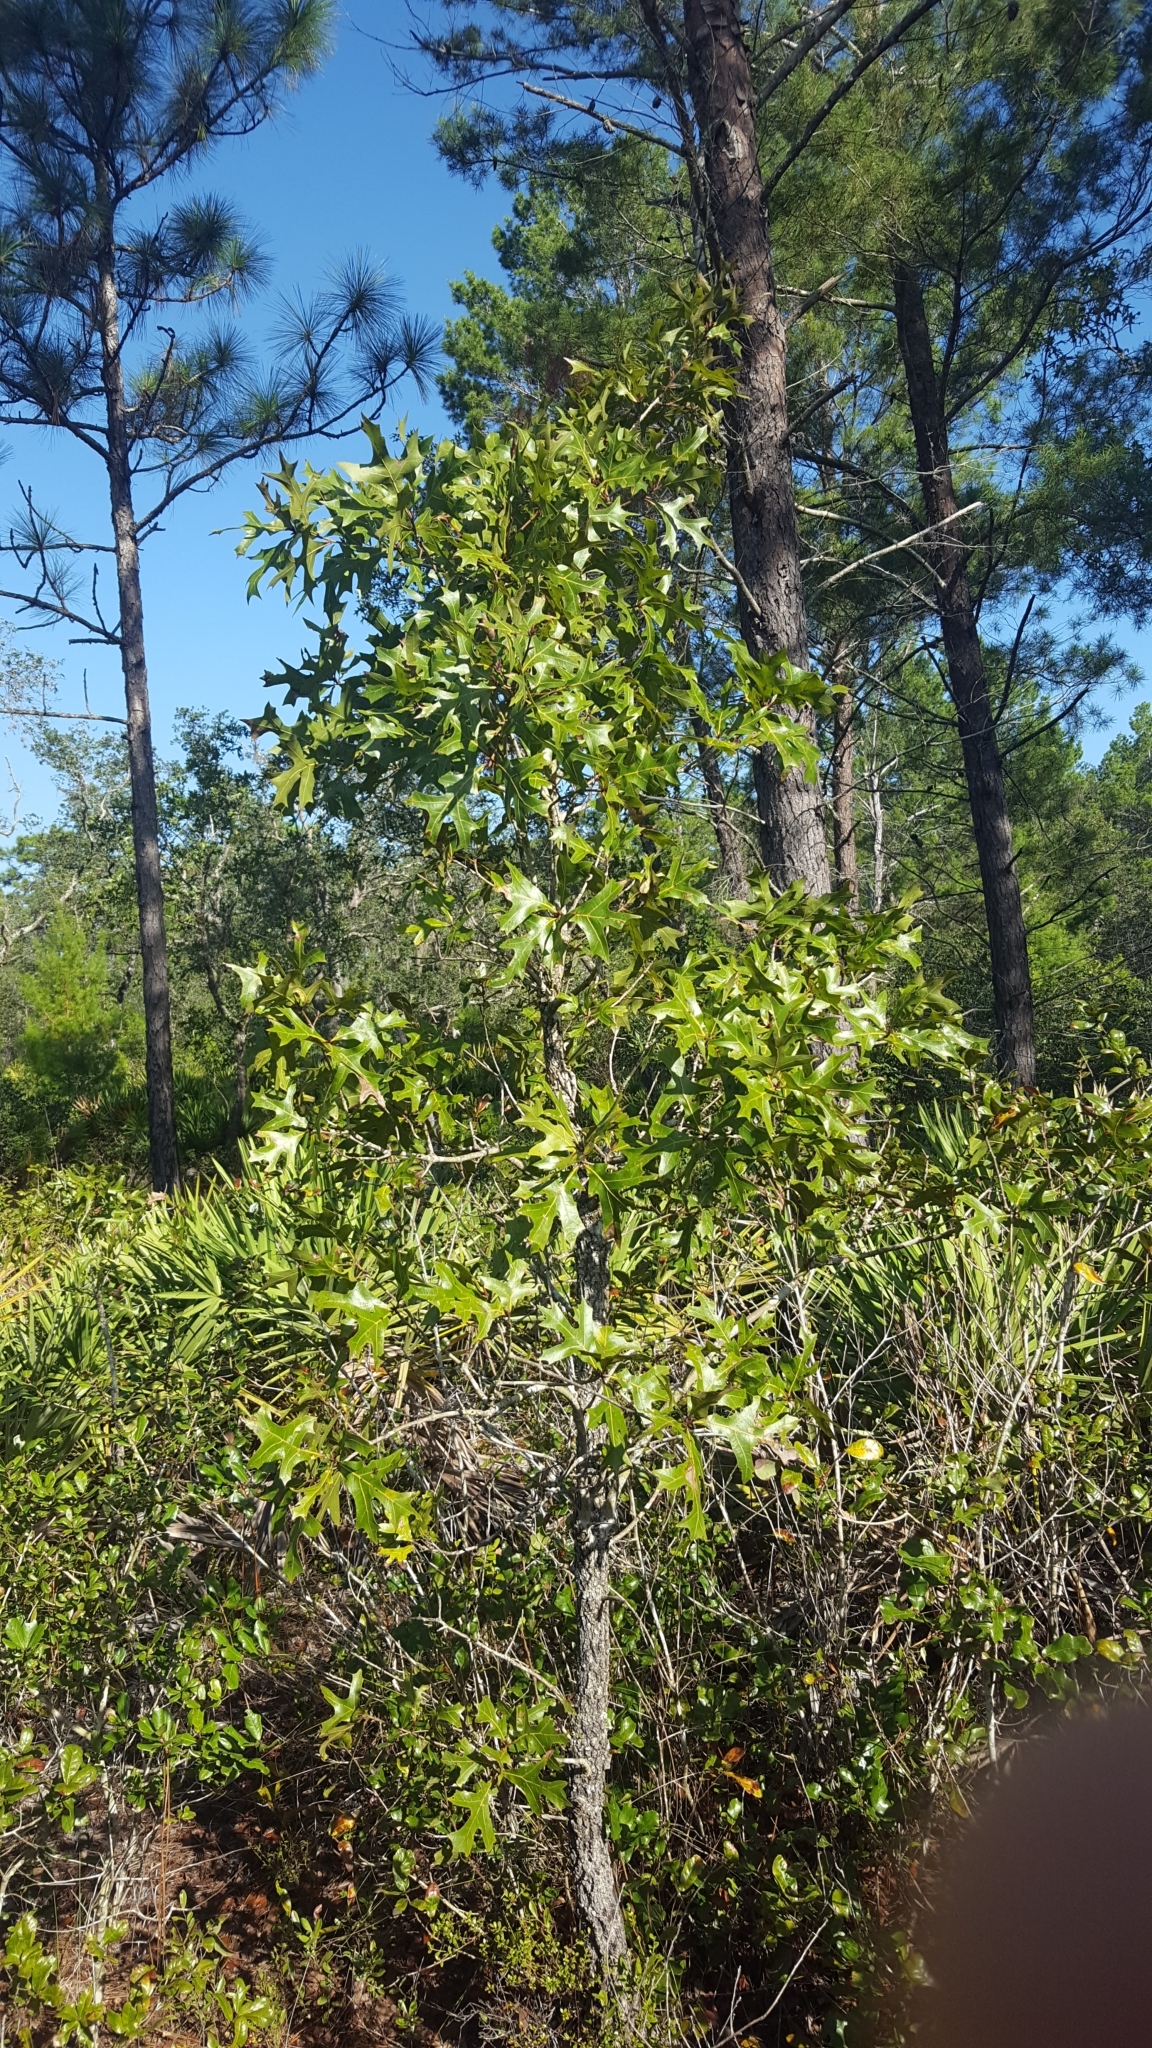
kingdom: Plantae
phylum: Tracheophyta
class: Magnoliopsida
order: Fagales
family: Fagaceae
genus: Quercus
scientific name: Quercus laevis
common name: Turkey oak
